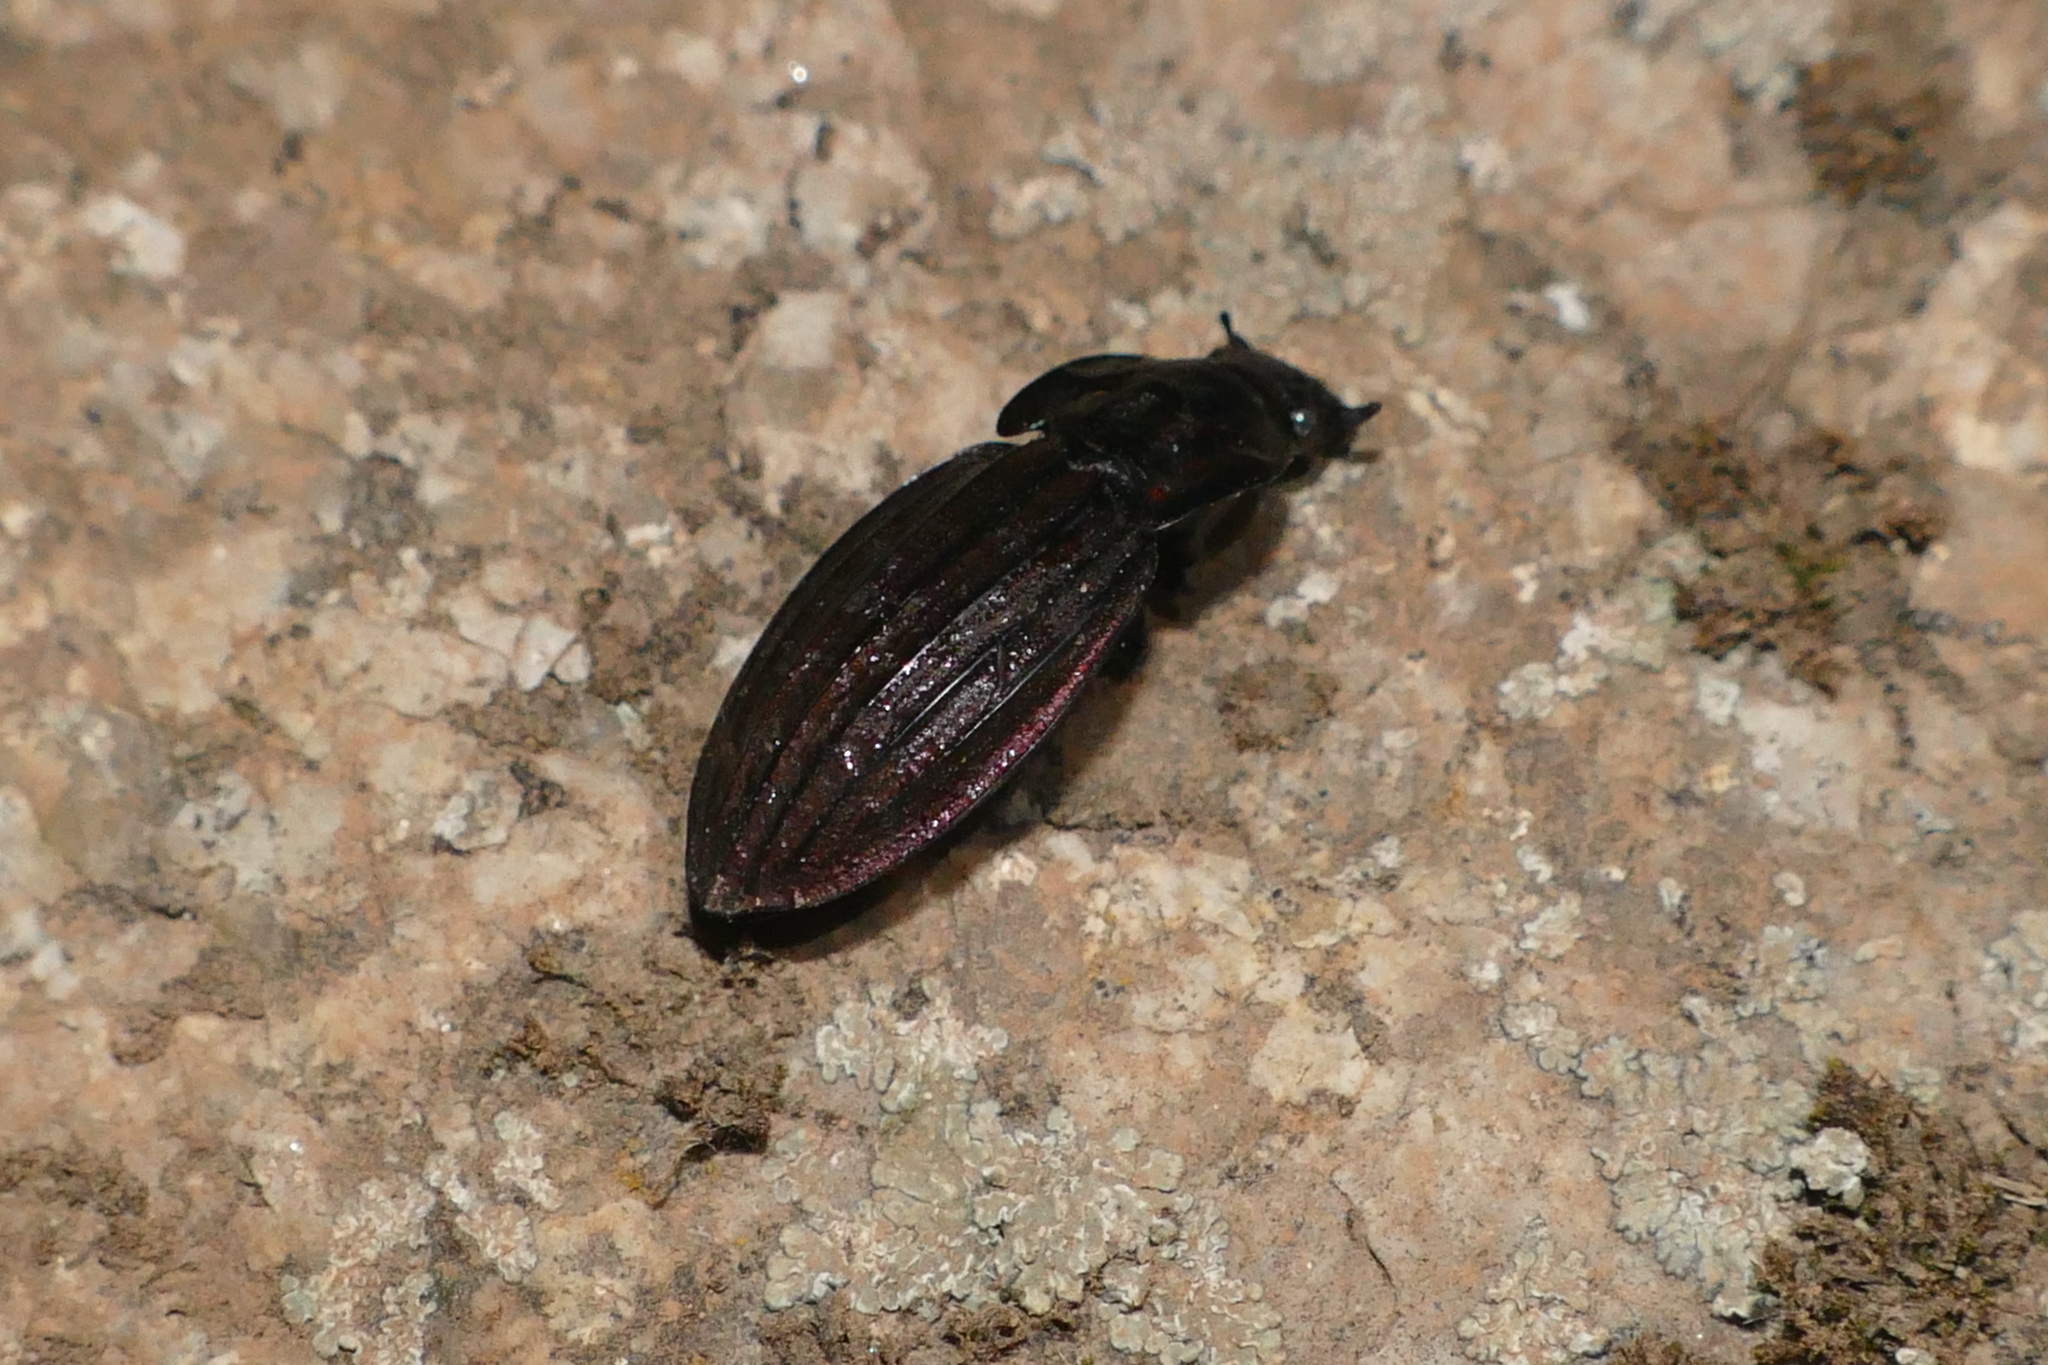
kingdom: Animalia
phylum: Arthropoda
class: Insecta
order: Coleoptera
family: Carabidae
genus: Carabus
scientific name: Carabus melancholicus
